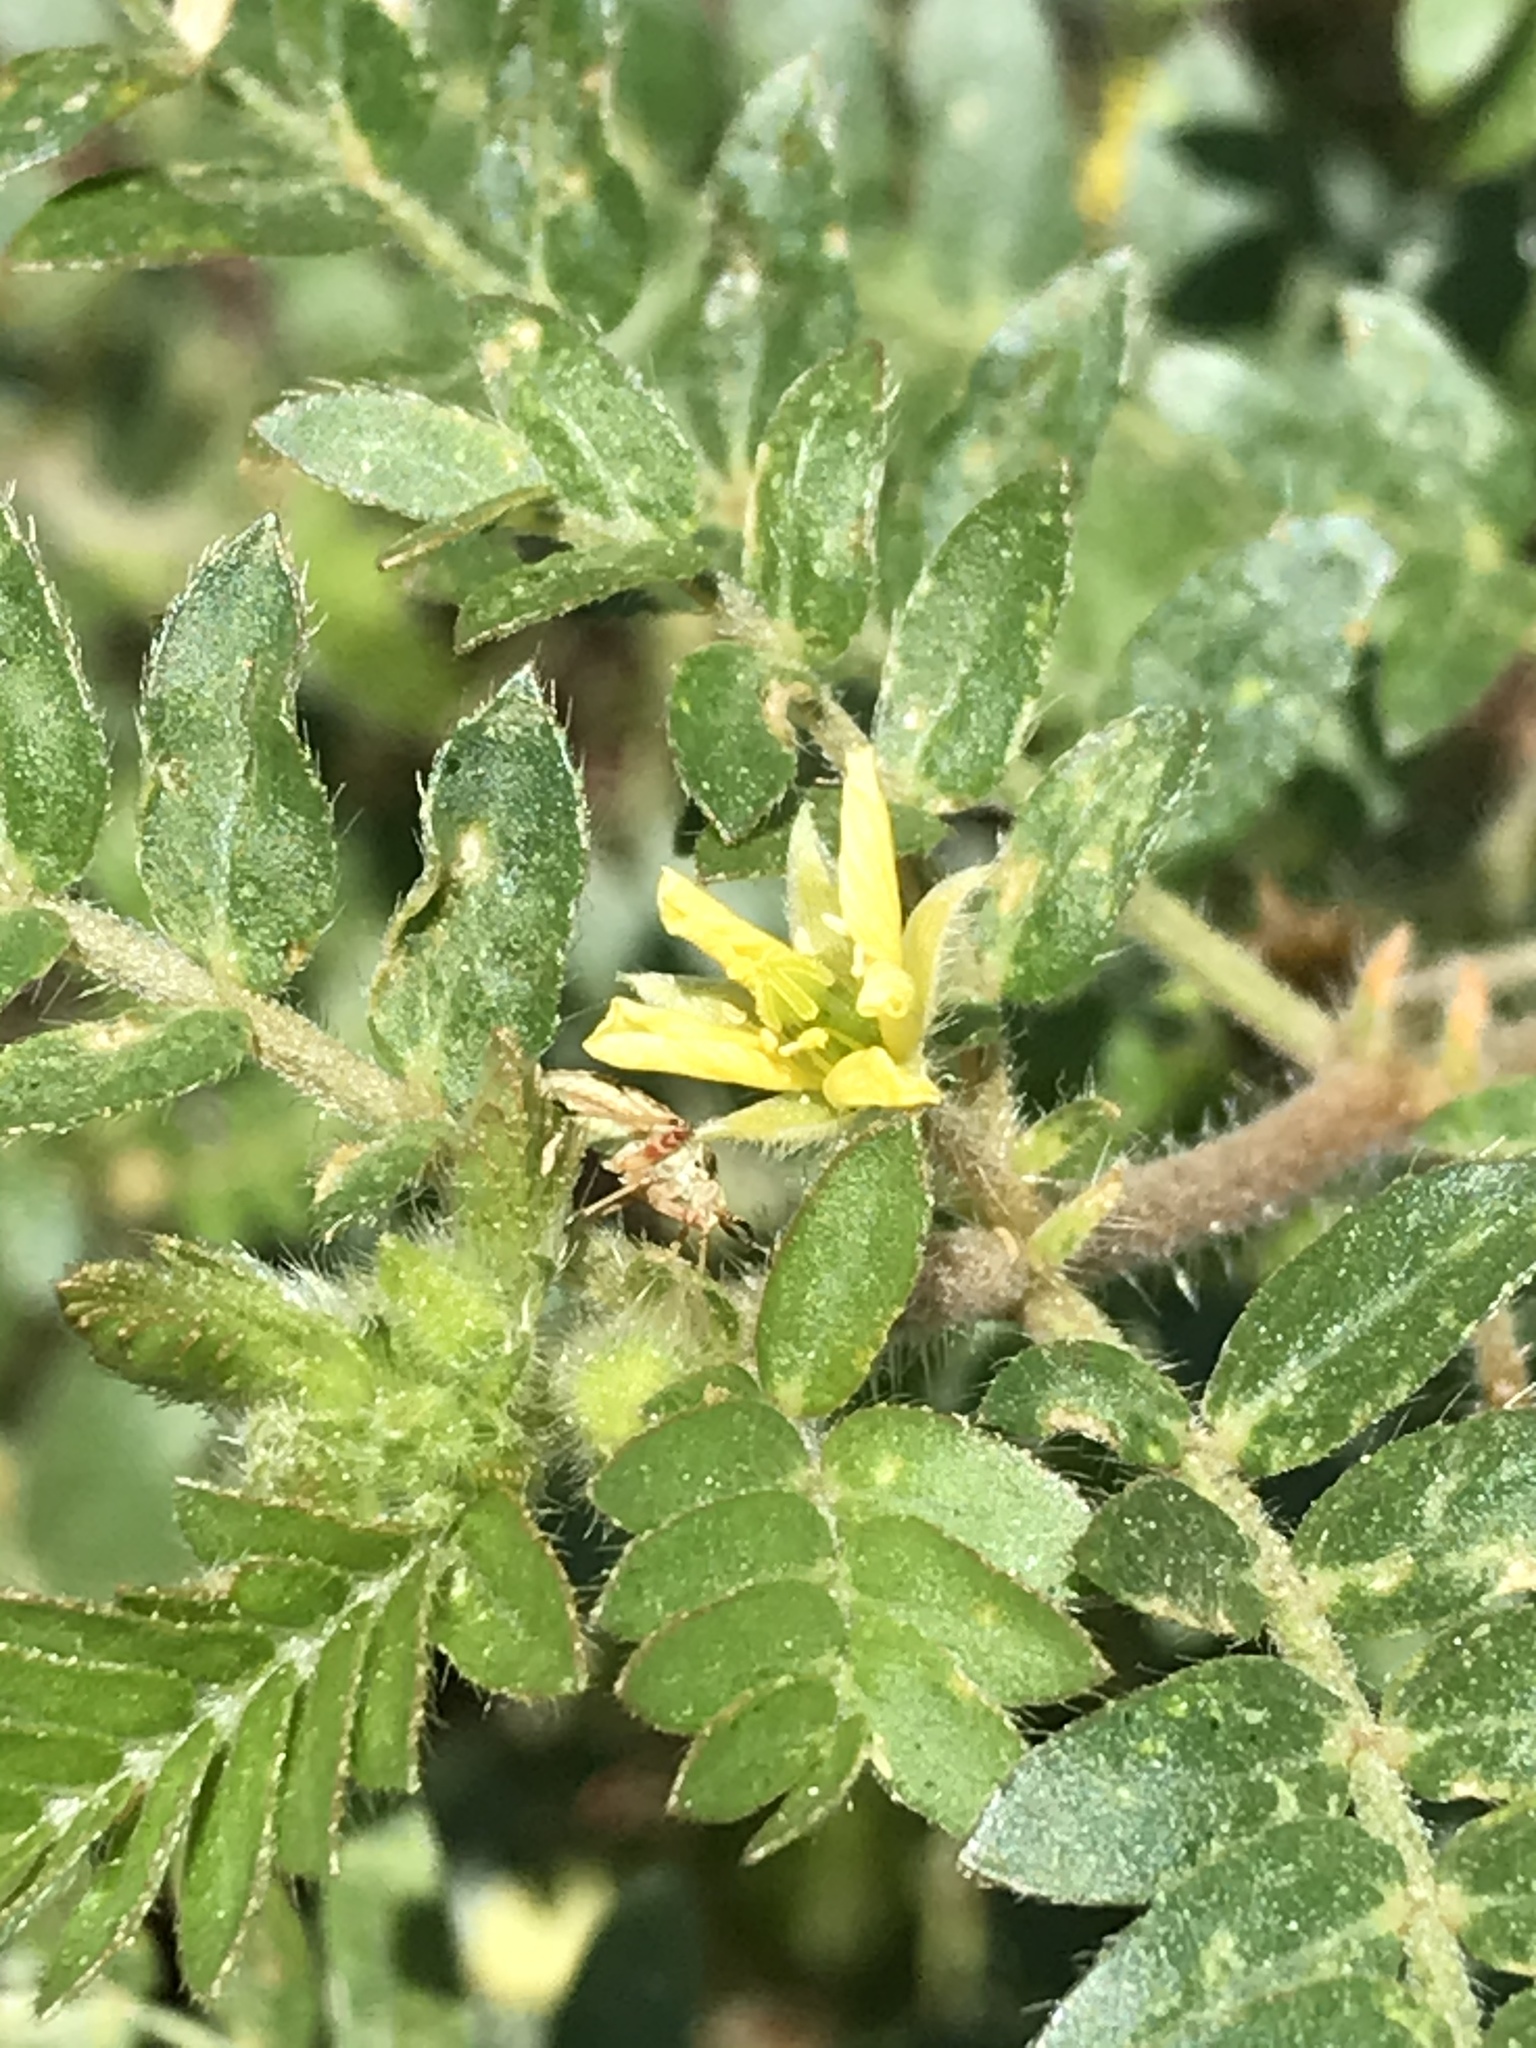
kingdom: Plantae
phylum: Tracheophyta
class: Magnoliopsida
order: Zygophyllales
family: Zygophyllaceae
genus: Tribulus
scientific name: Tribulus terrestris
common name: Puncturevine
